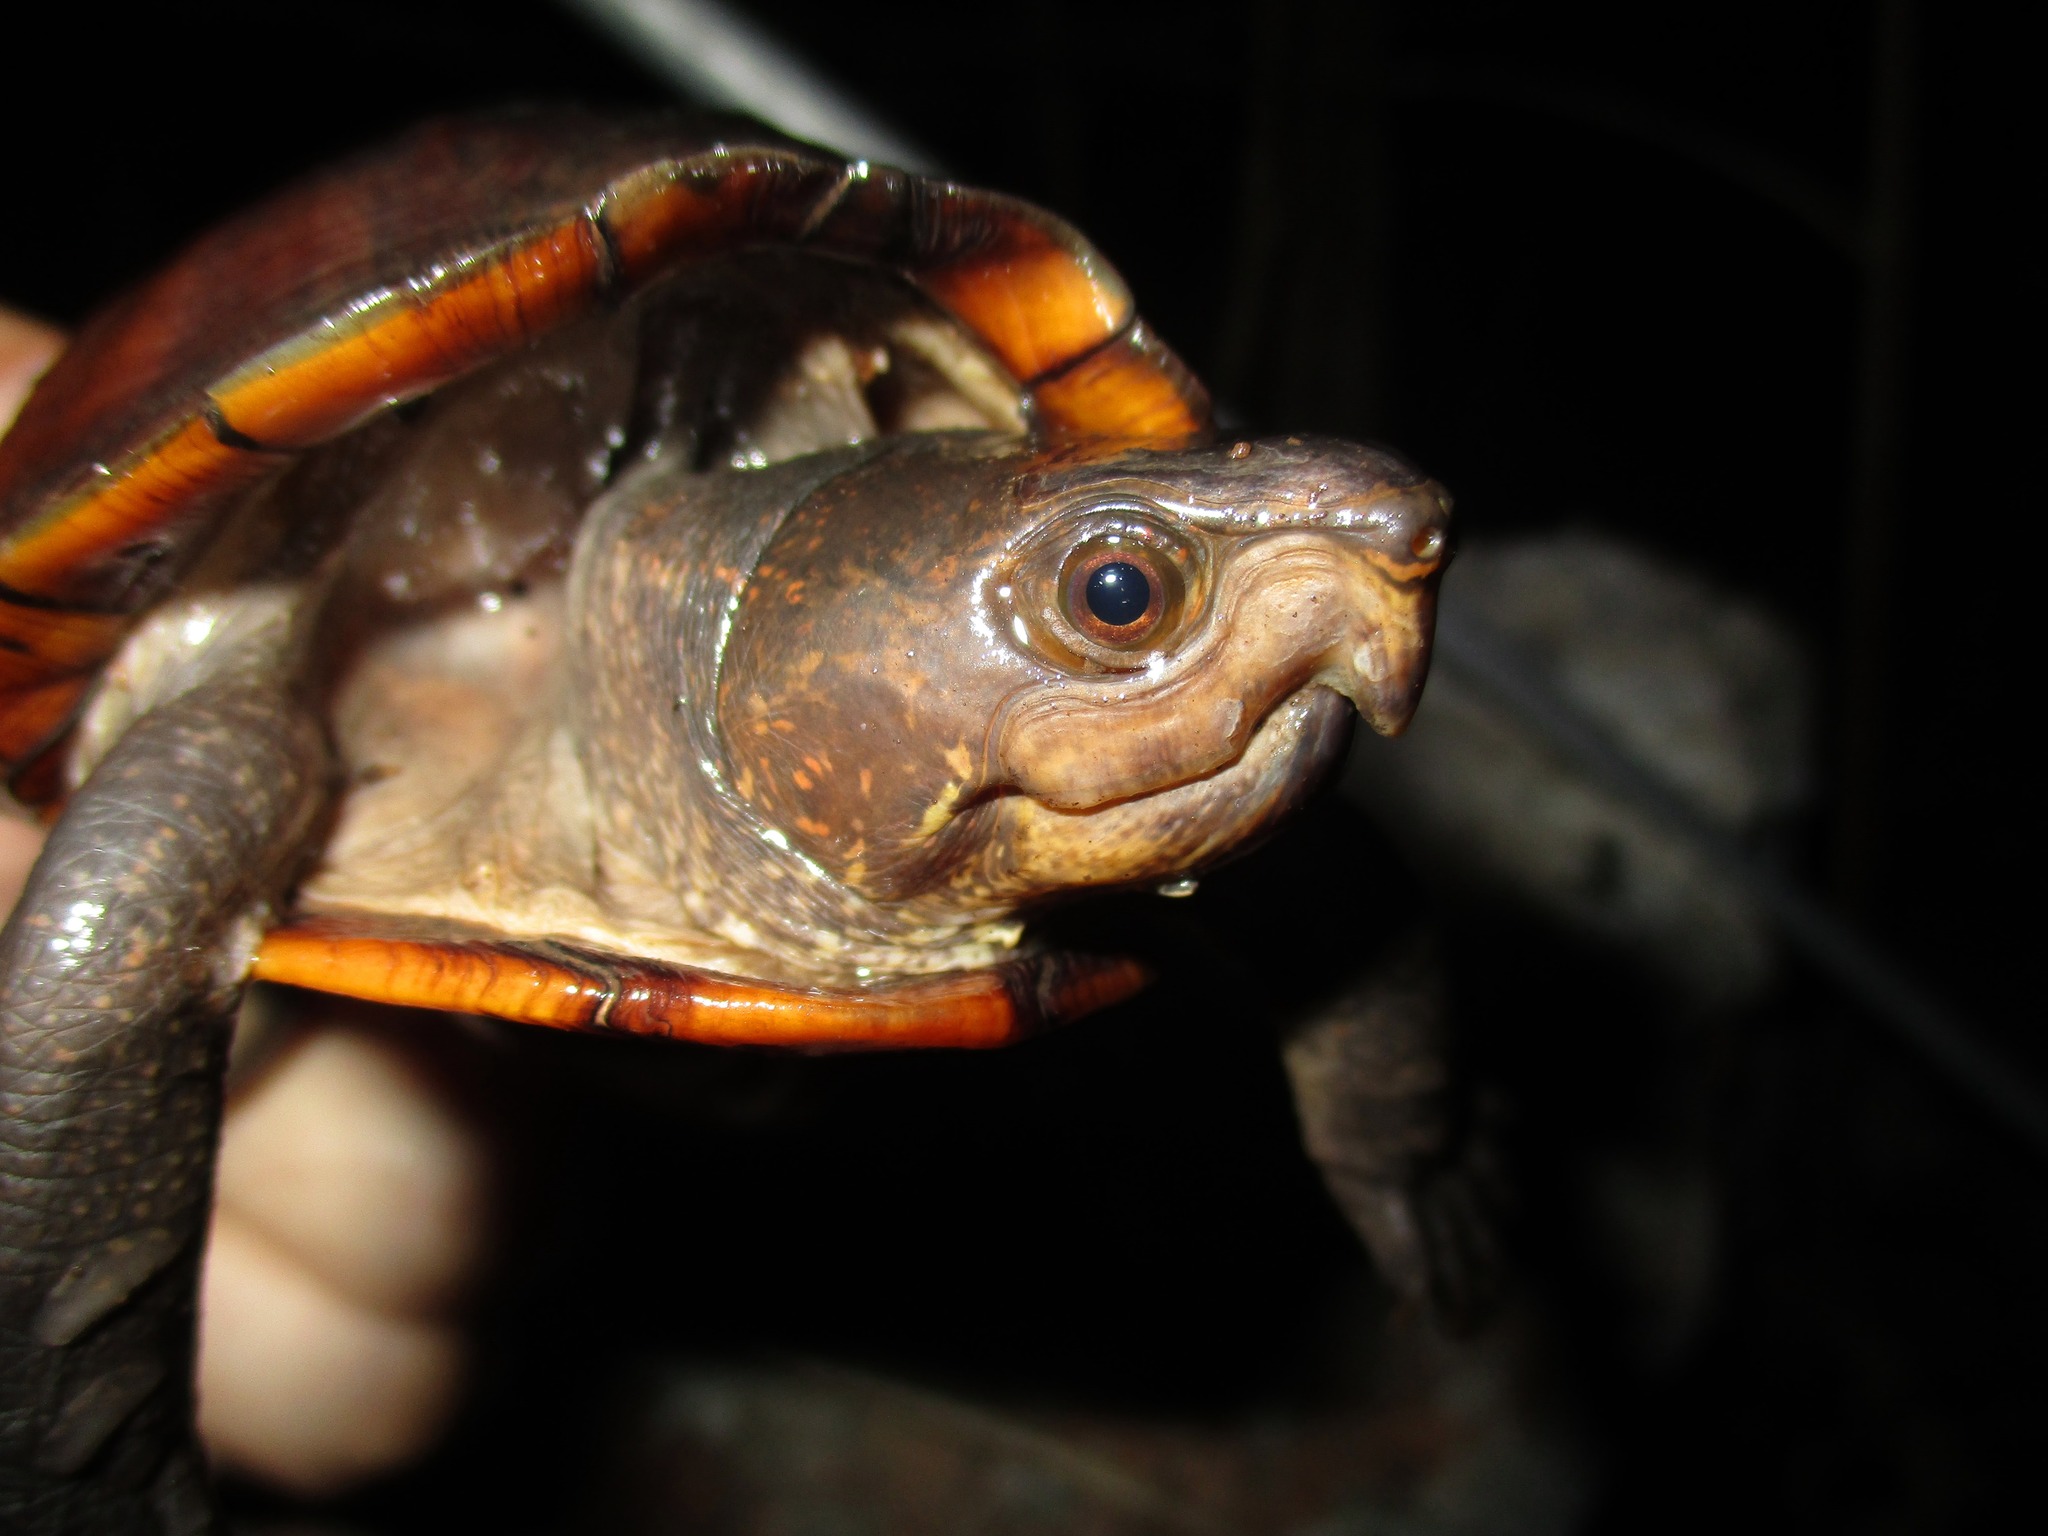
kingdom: Animalia
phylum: Chordata
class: Testudines
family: Kinosternidae
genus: Kinosternon
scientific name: Kinosternon creaseri
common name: Creaser's mud turtle
